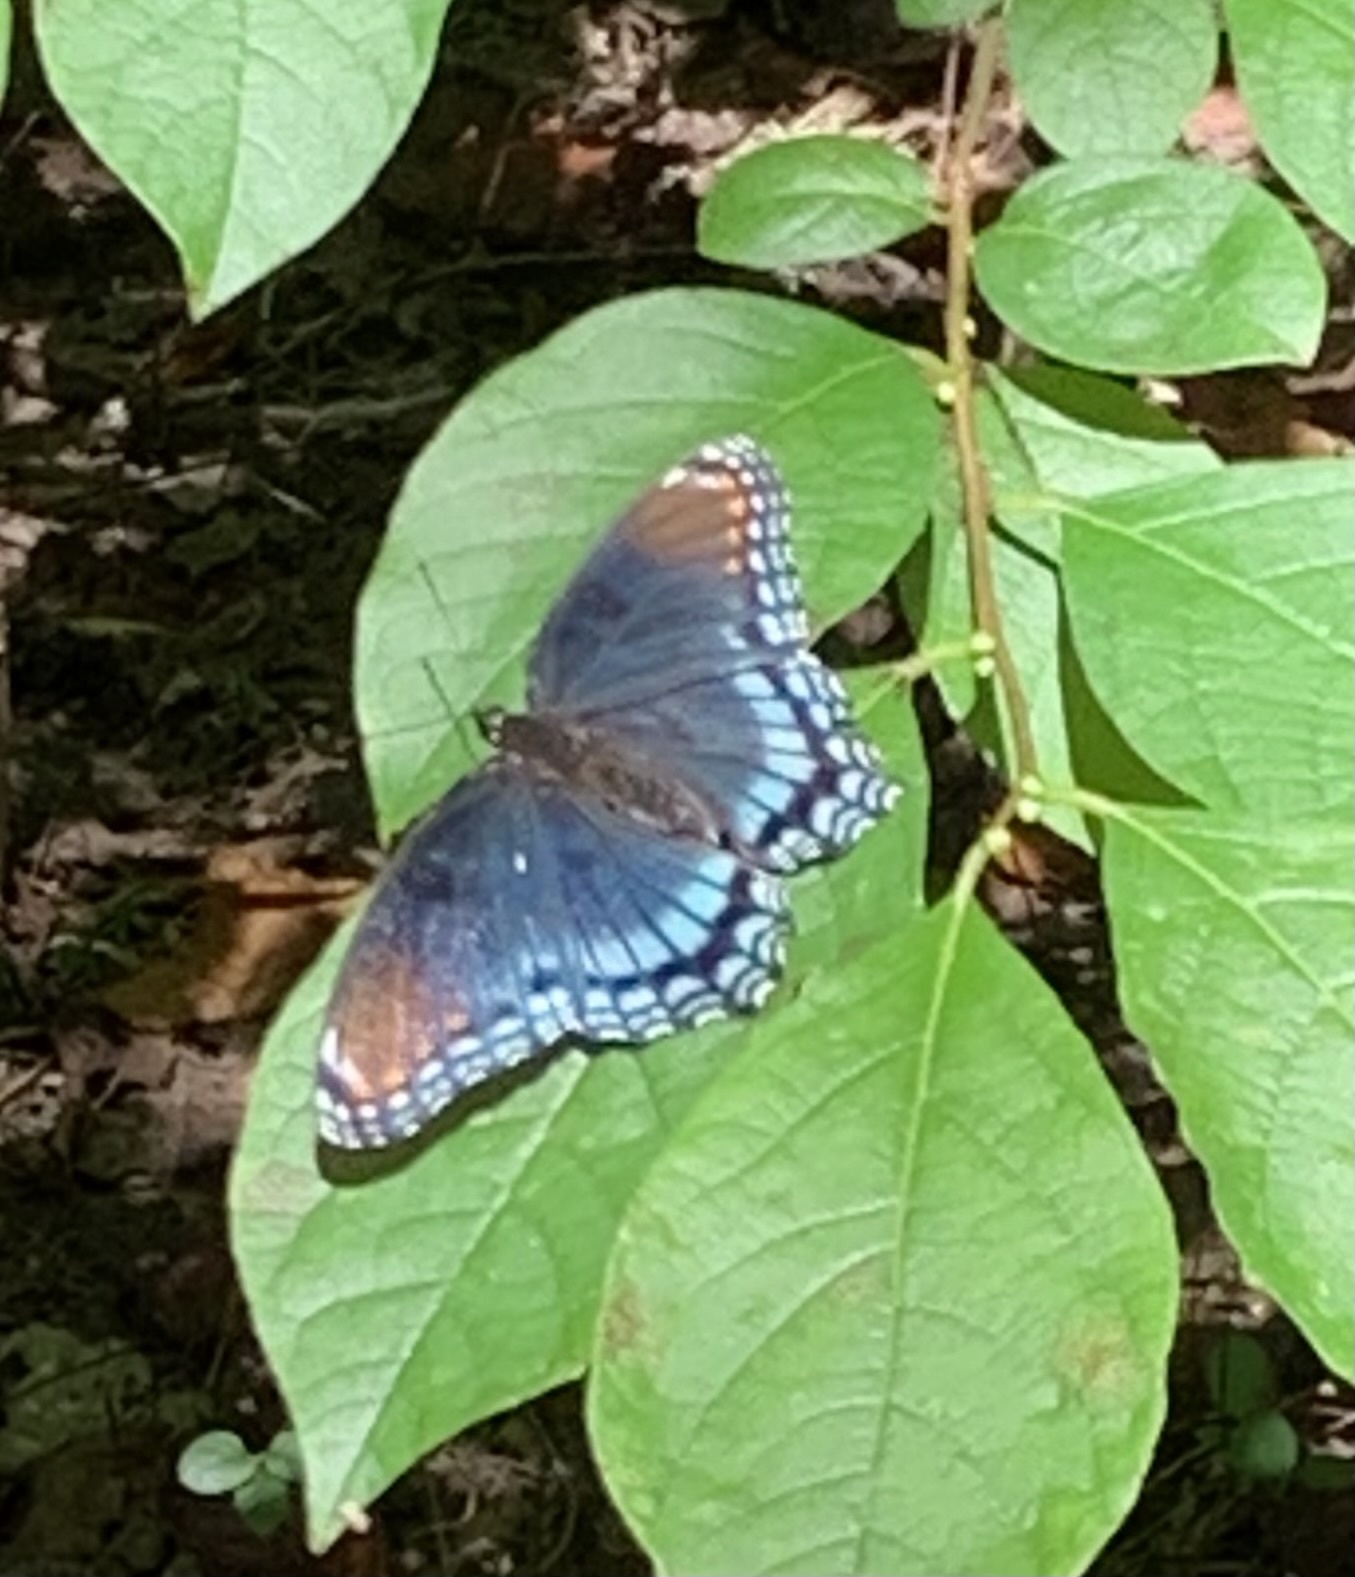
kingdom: Animalia
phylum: Arthropoda
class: Insecta
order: Lepidoptera
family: Nymphalidae
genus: Limenitis
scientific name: Limenitis astyanax
